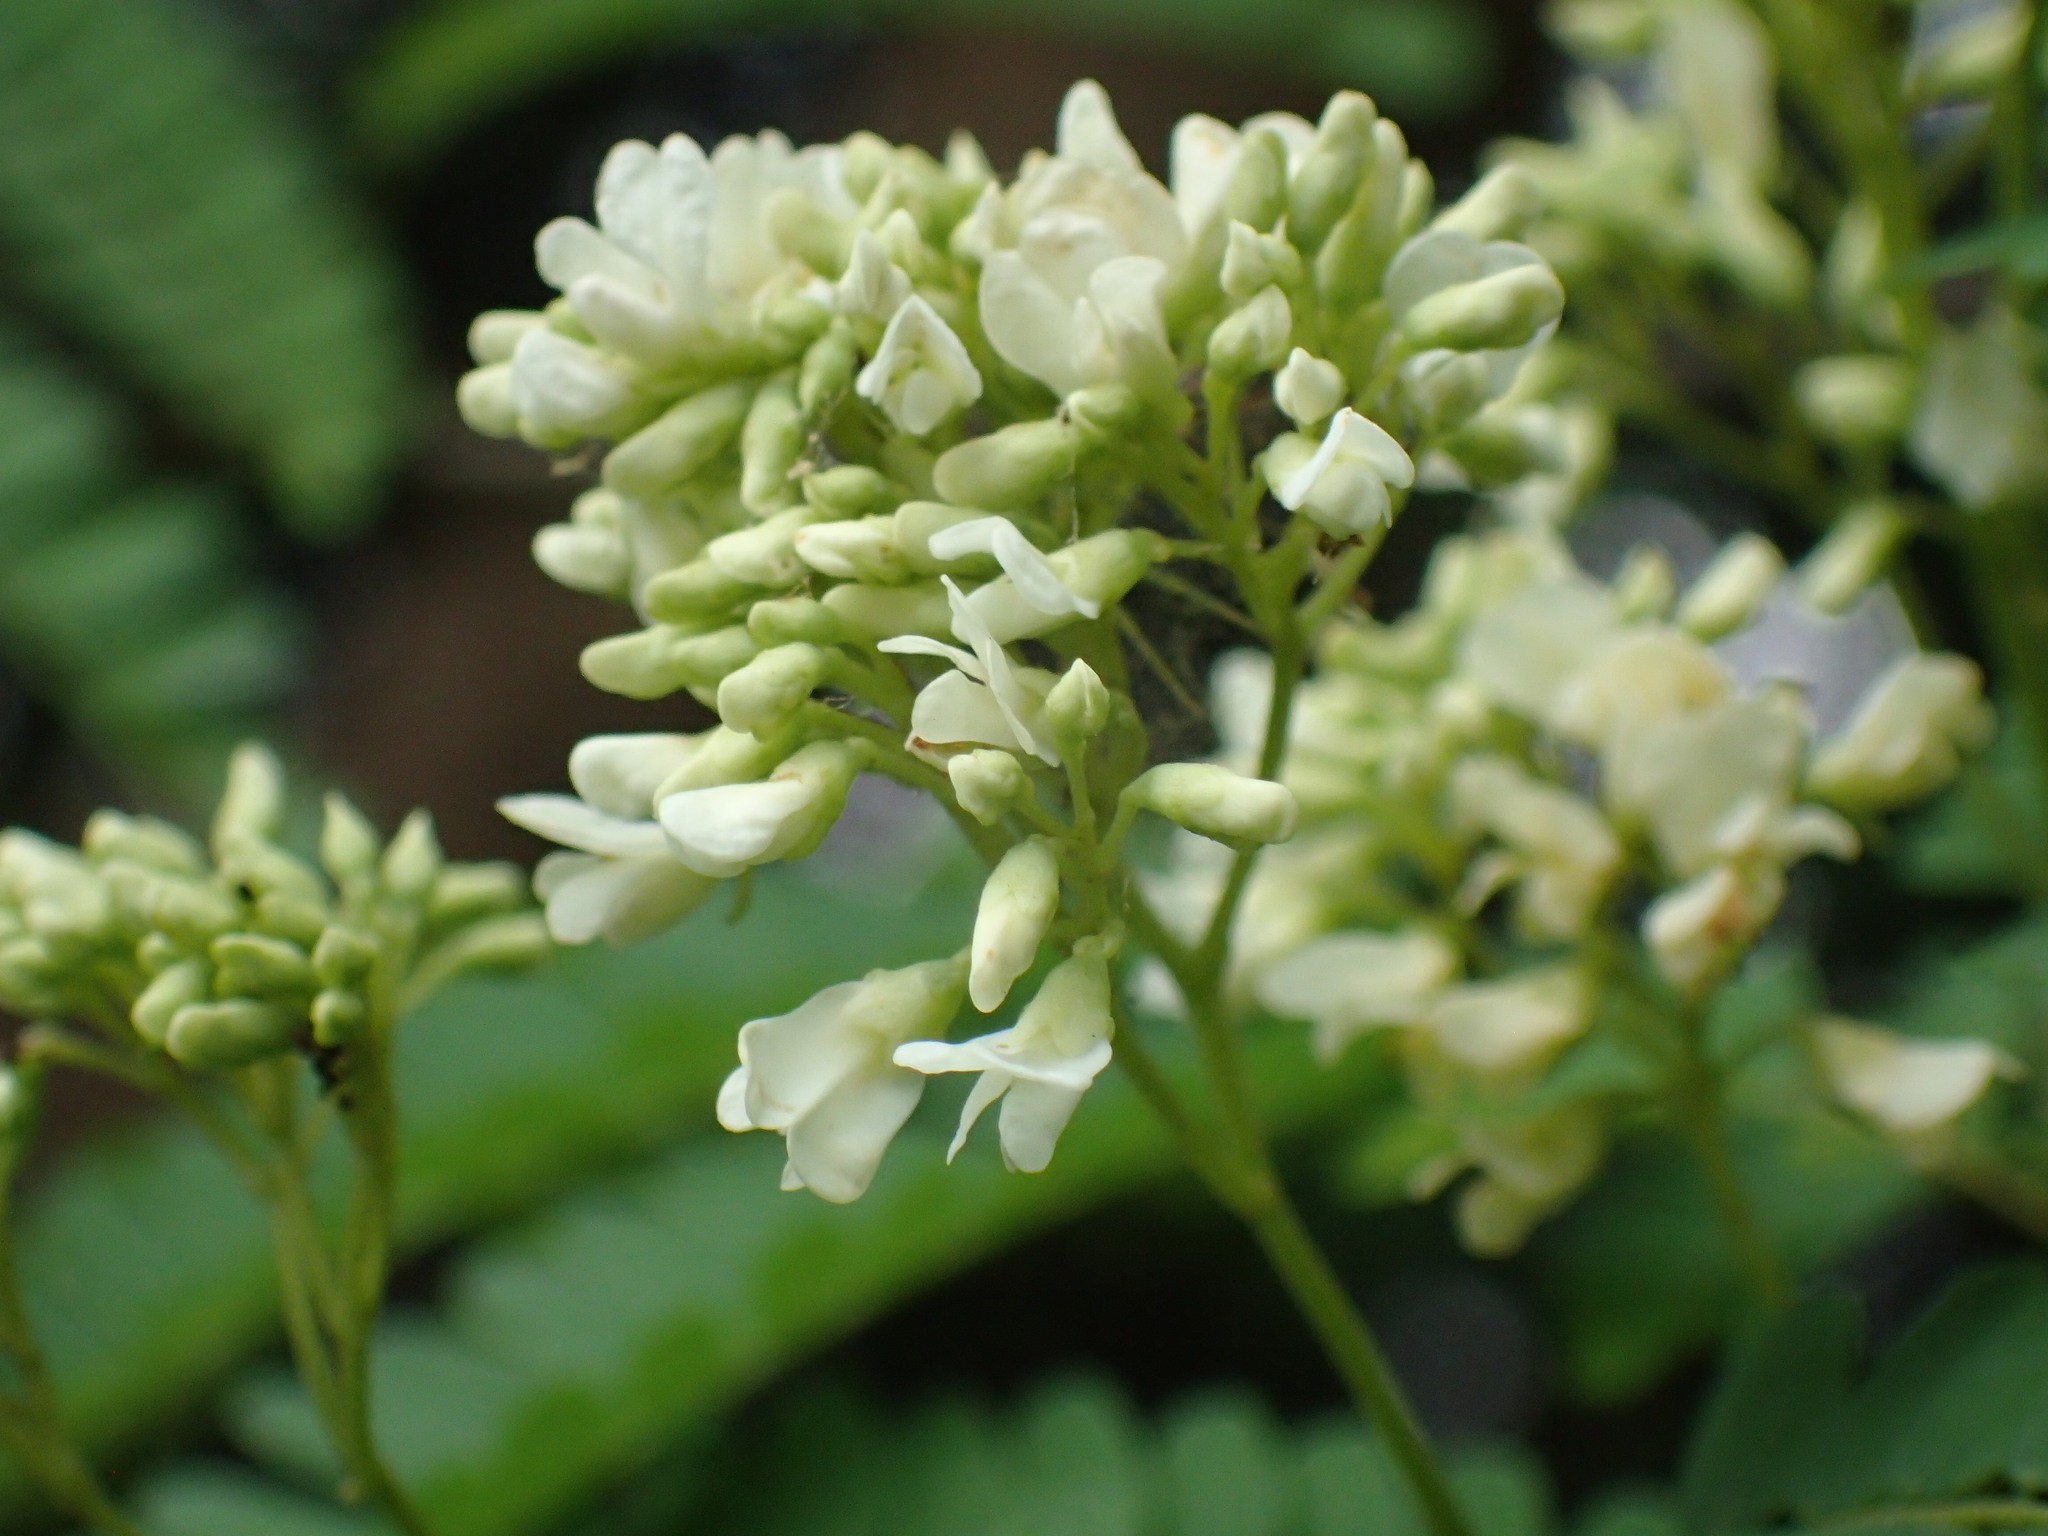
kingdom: Plantae
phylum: Tracheophyta
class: Magnoliopsida
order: Fabales
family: Fabaceae
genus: Dalbergia
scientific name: Dalbergia armata
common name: Hluhluwe climber
